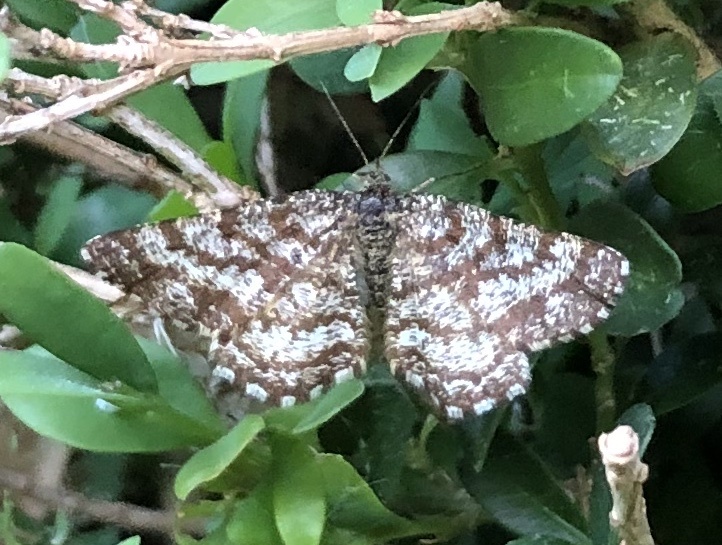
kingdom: Animalia
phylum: Arthropoda
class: Insecta
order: Lepidoptera
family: Geometridae
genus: Ematurga
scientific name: Ematurga atomaria
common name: Common heath
